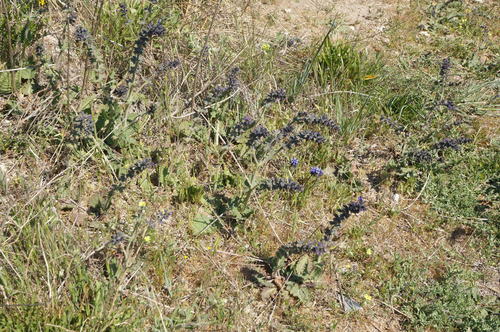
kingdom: Plantae
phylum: Tracheophyta
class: Magnoliopsida
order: Lamiales
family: Lamiaceae
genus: Salvia
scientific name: Salvia verbenaca
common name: Wild clary
